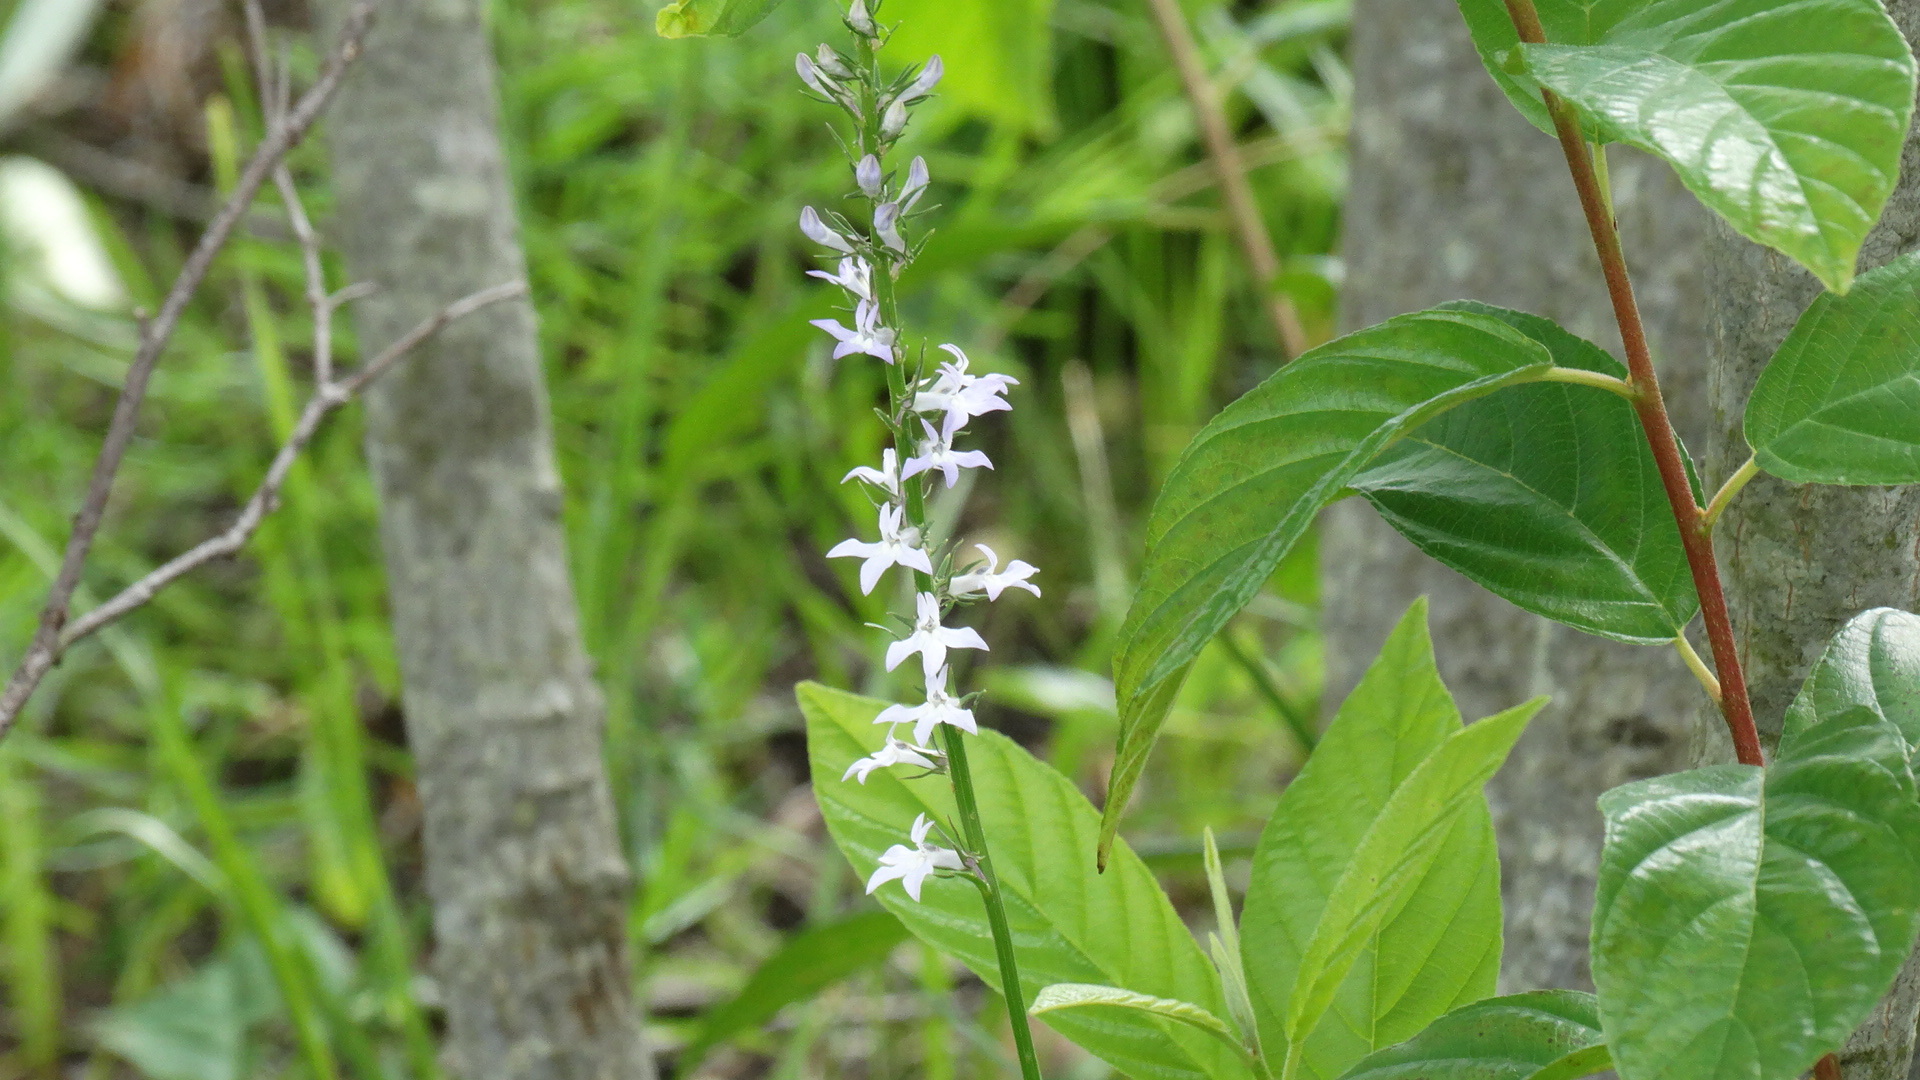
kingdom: Plantae
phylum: Tracheophyta
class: Magnoliopsida
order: Asterales
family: Campanulaceae
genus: Lobelia
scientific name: Lobelia spicata
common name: Pale-spike lobelia
